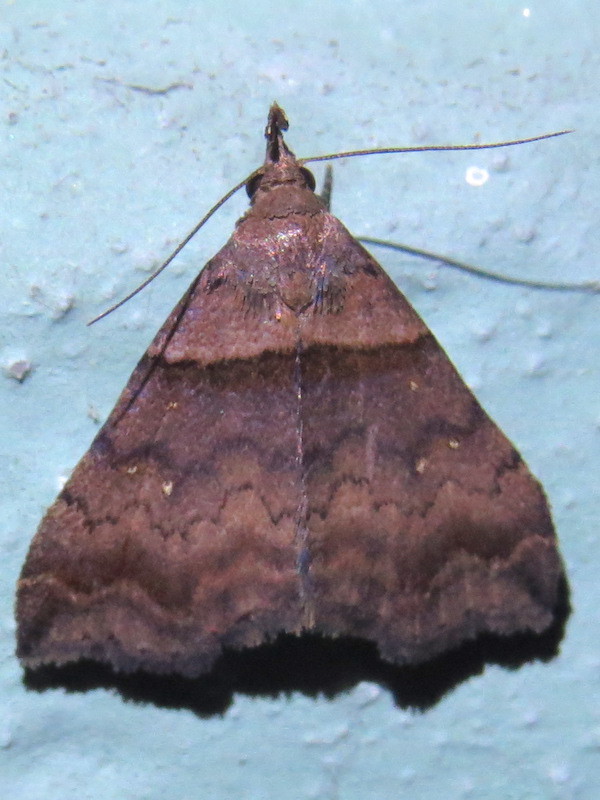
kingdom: Animalia
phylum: Arthropoda
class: Insecta
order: Lepidoptera
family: Erebidae
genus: Lascoria
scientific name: Lascoria ambigualis
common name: Ambiguous moth
